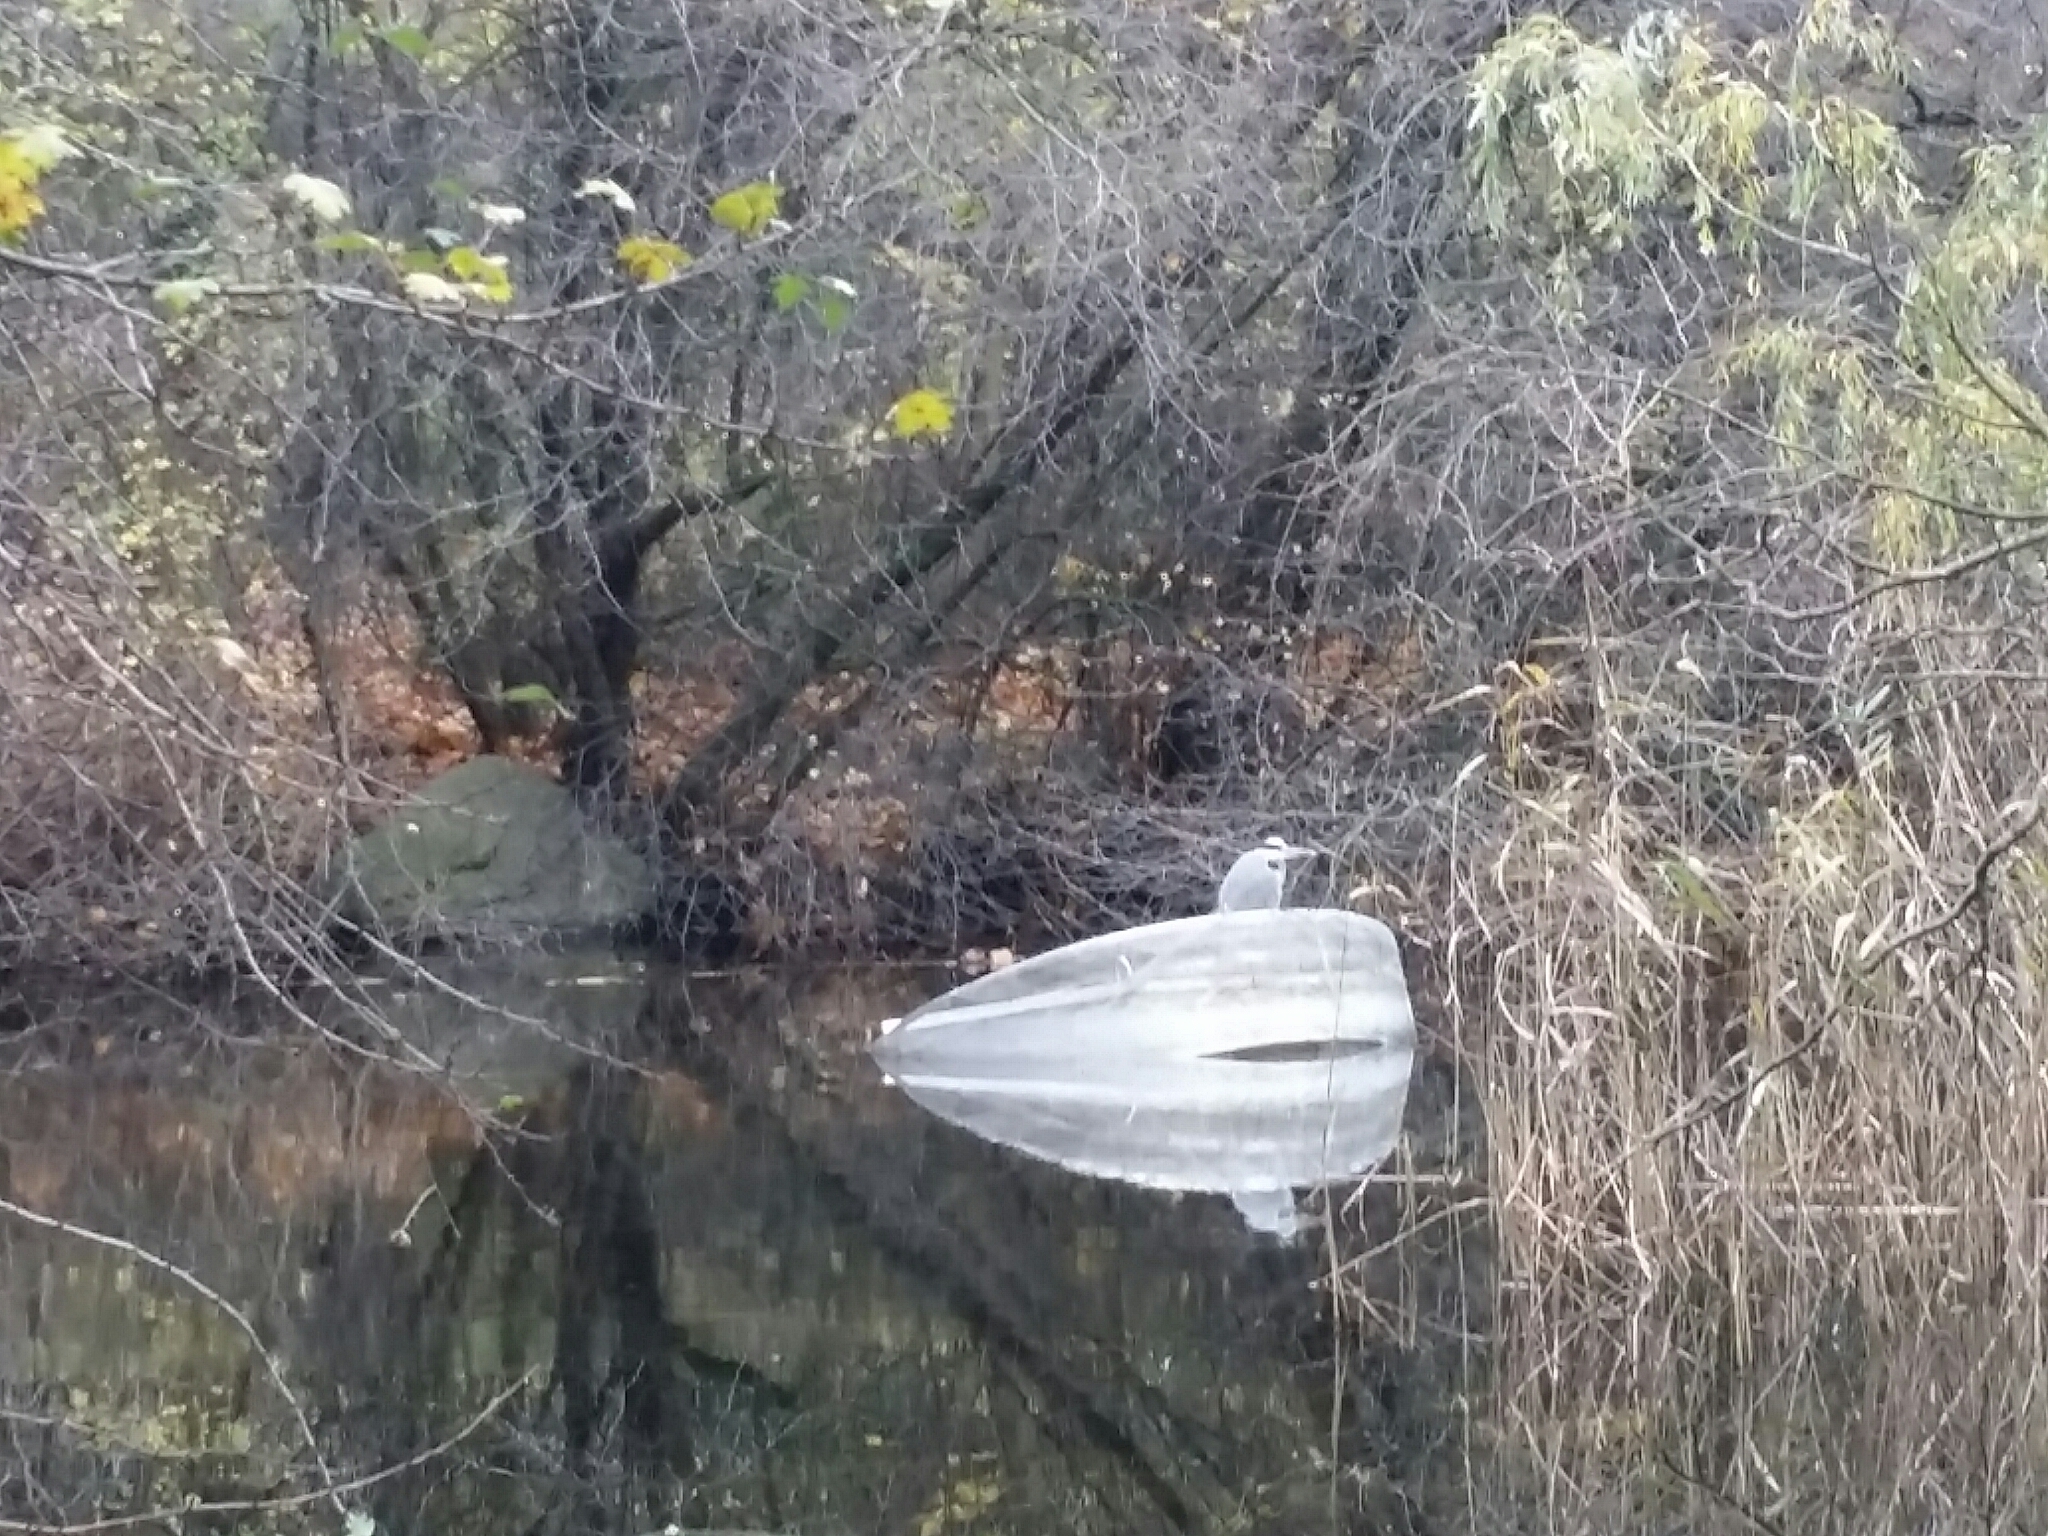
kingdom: Animalia
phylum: Chordata
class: Aves
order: Pelecaniformes
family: Ardeidae
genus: Ardea
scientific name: Ardea cinerea
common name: Grey heron
